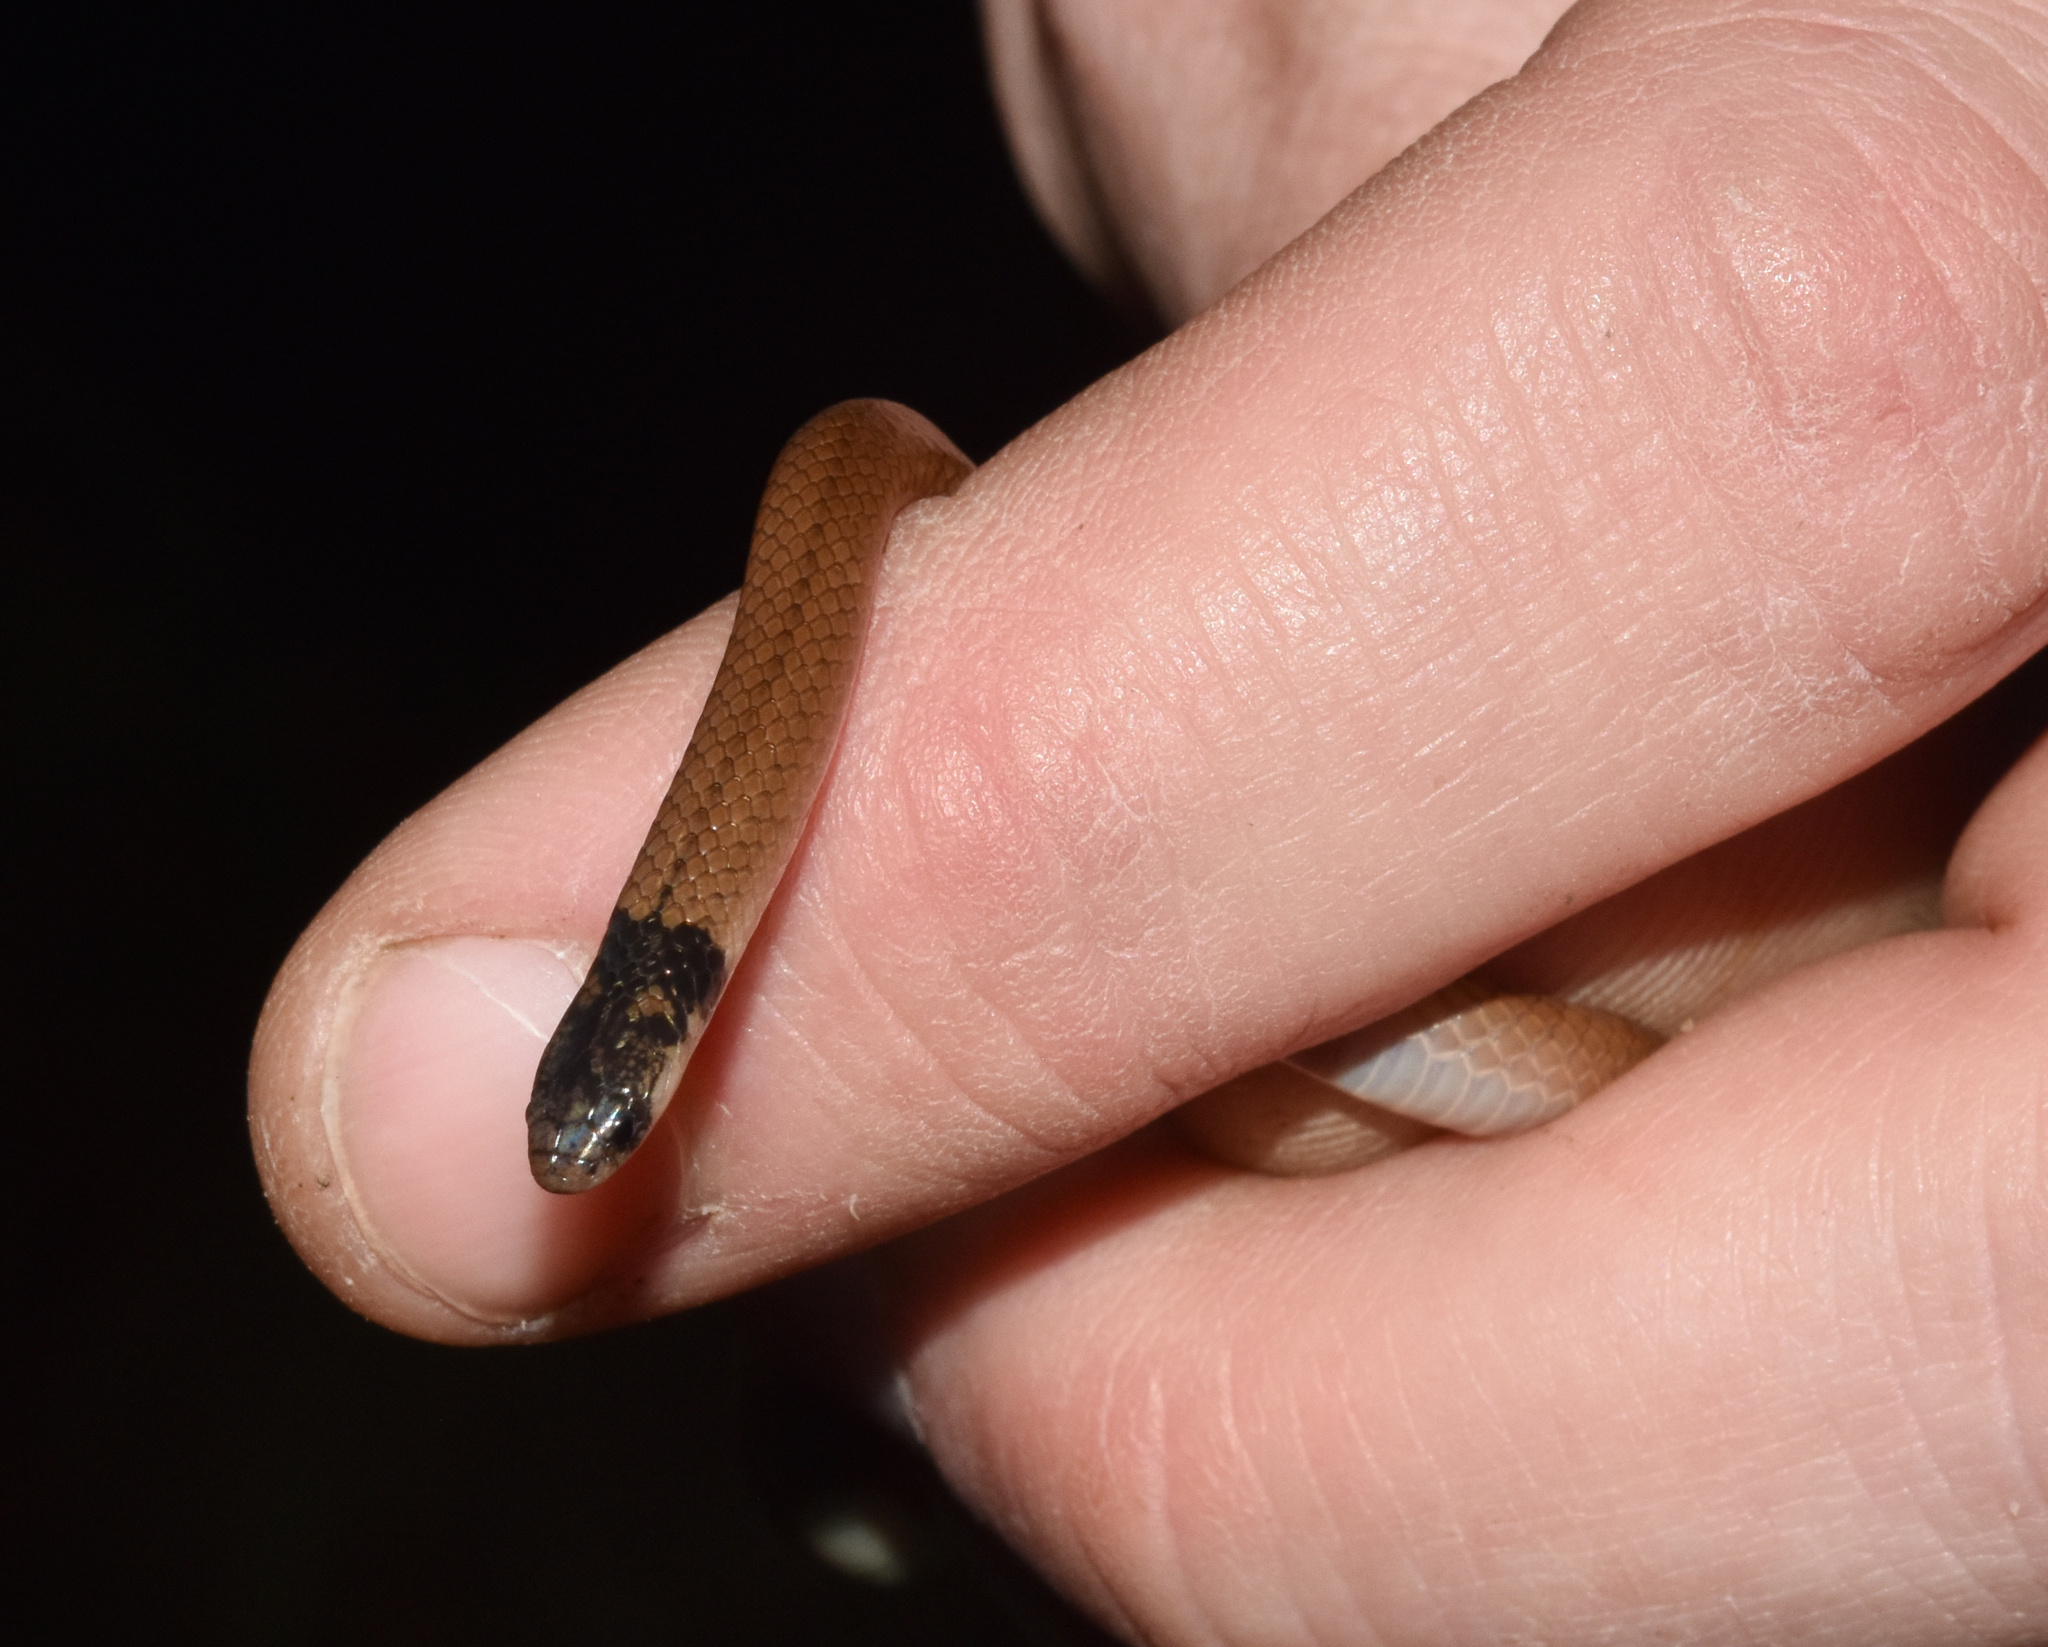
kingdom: Animalia
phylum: Chordata
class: Squamata
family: Atractaspididae
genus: Aparallactus
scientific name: Aparallactus capensis
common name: Cape centipede eater
